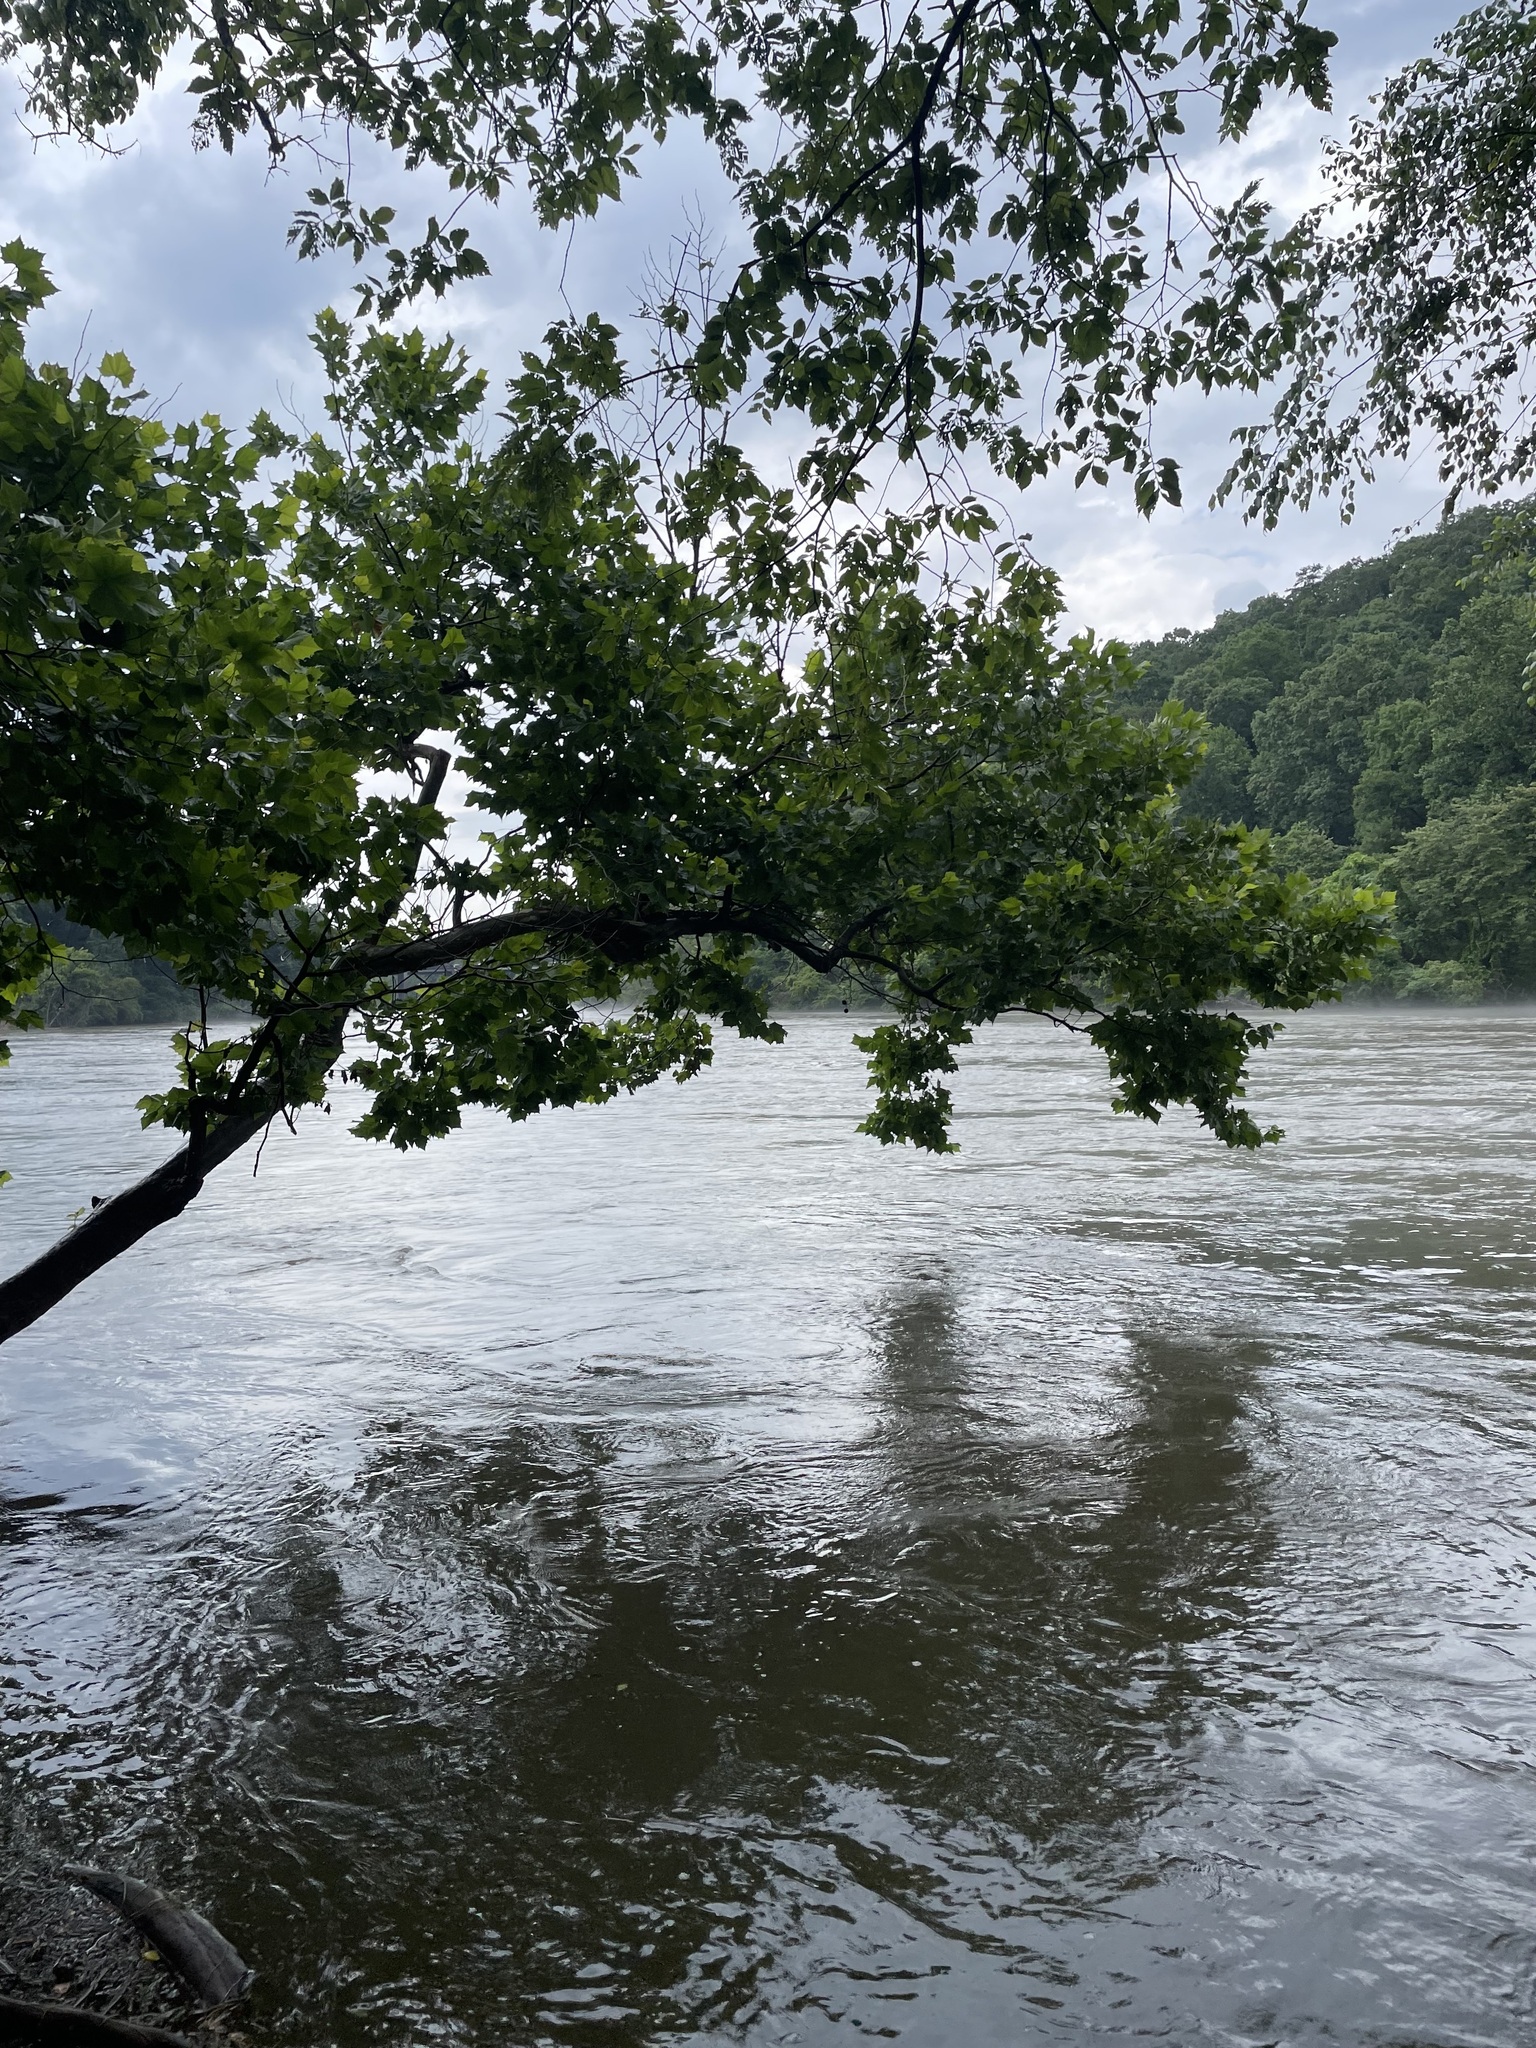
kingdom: Plantae
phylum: Tracheophyta
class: Magnoliopsida
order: Proteales
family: Platanaceae
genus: Platanus
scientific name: Platanus occidentalis
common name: American sycamore
